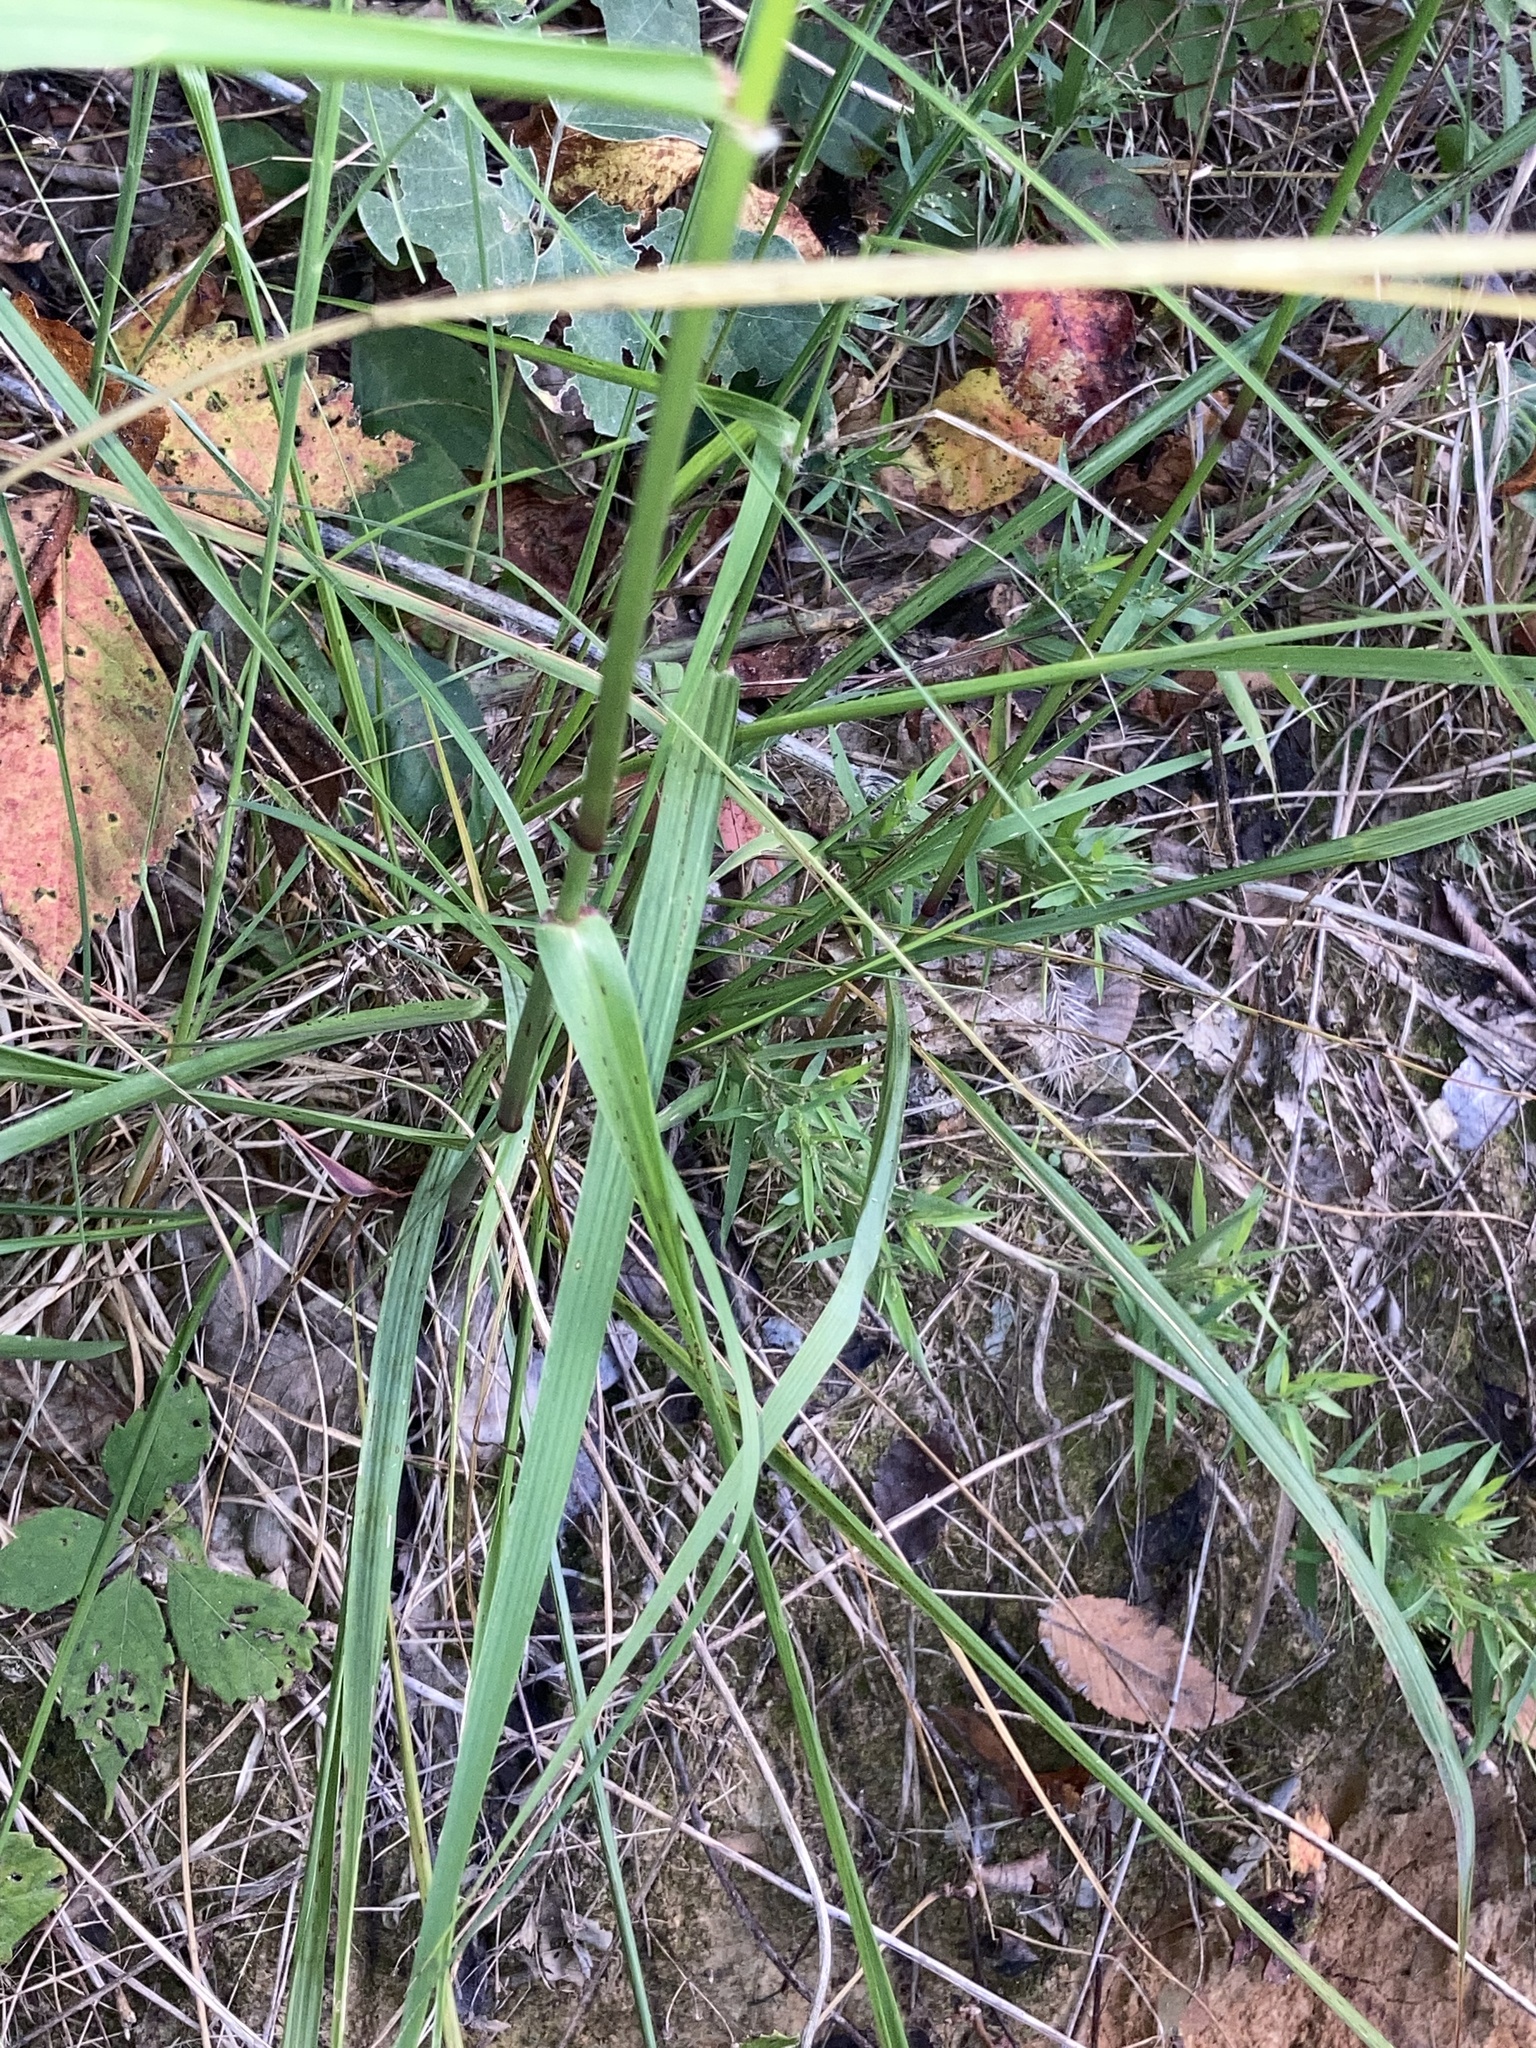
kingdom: Plantae
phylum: Tracheophyta
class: Liliopsida
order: Poales
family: Poaceae
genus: Tridens
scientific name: Tridens flavus
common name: Purpletop
